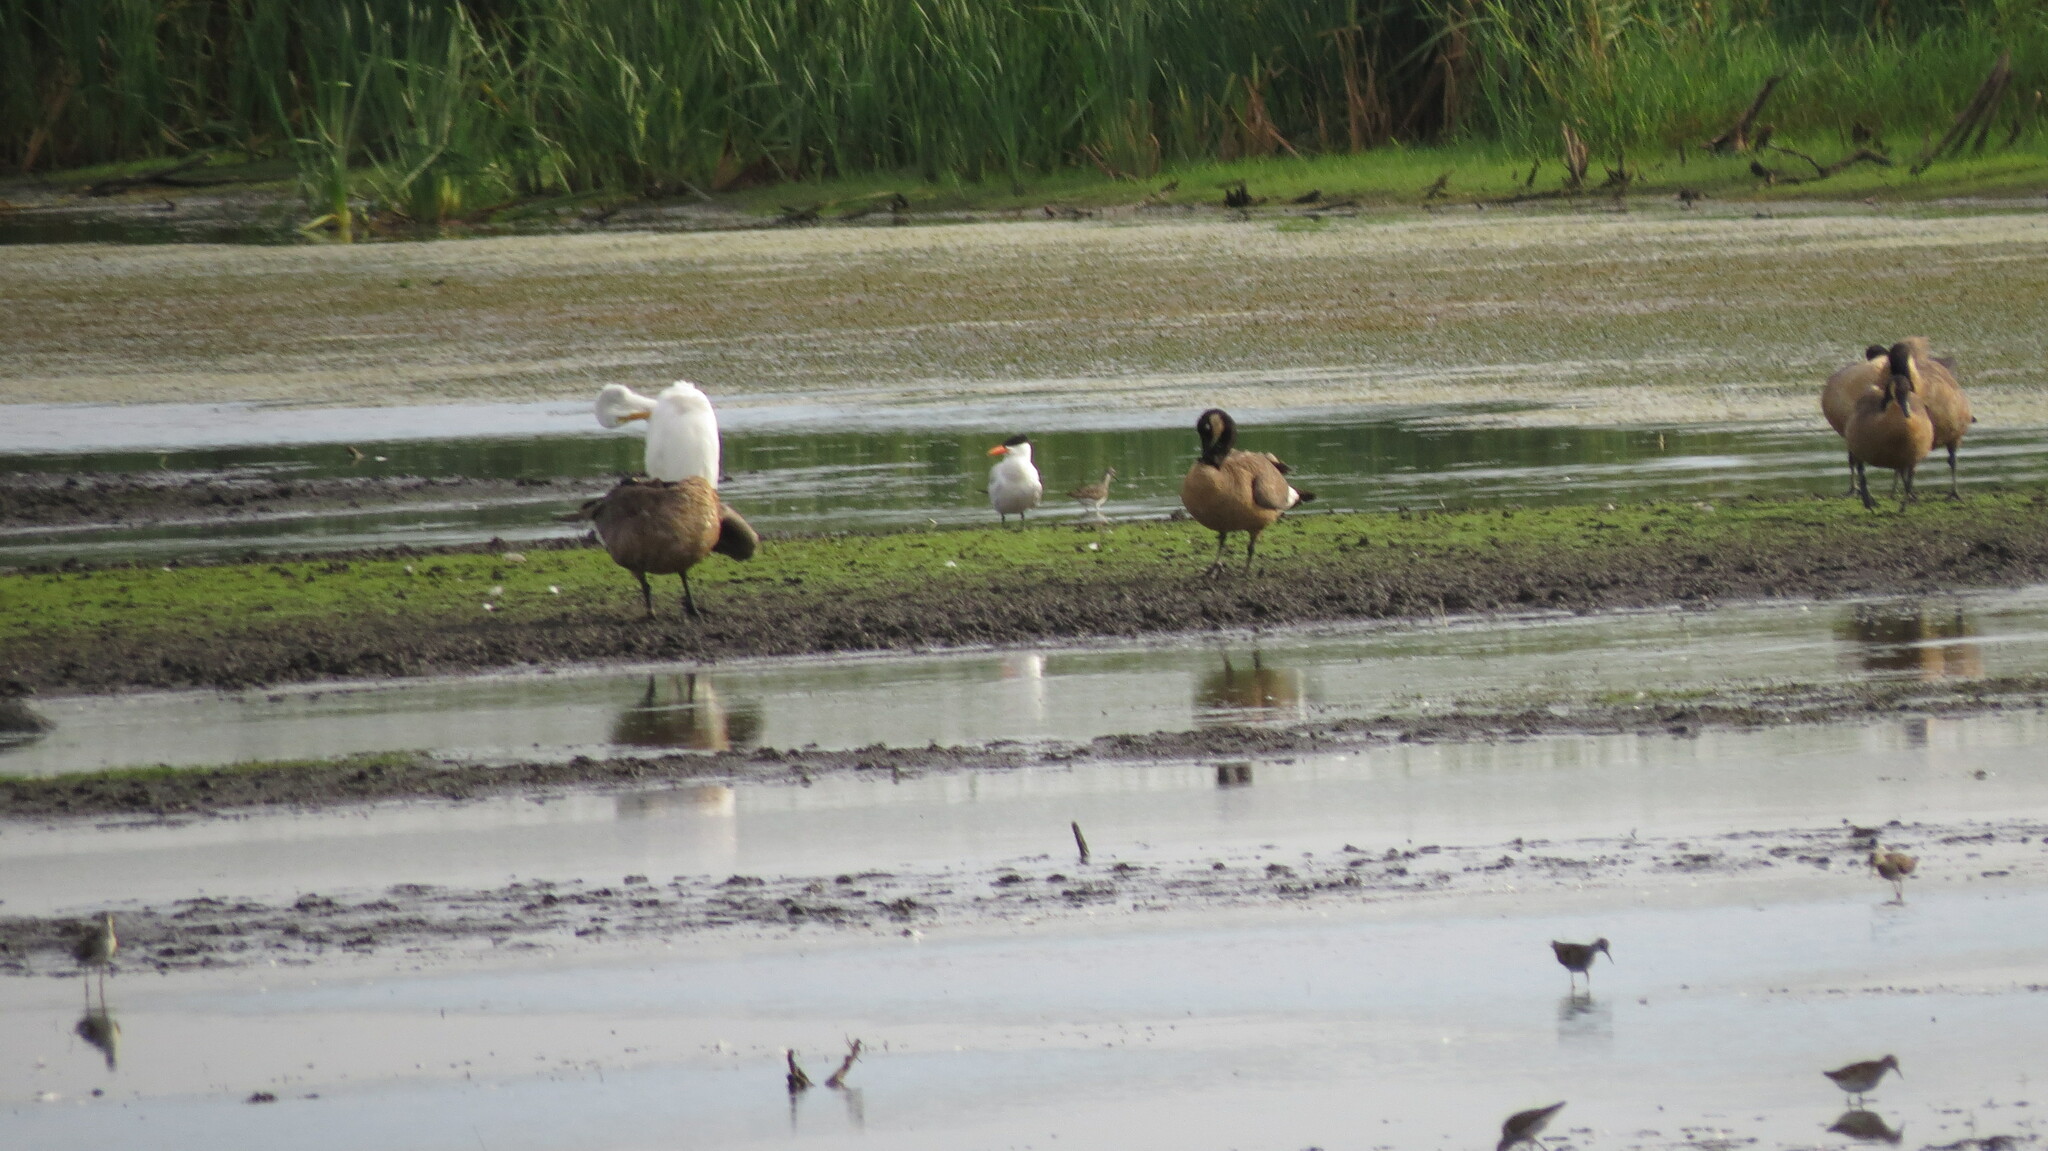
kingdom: Animalia
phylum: Chordata
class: Aves
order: Charadriiformes
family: Laridae
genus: Hydroprogne
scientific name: Hydroprogne caspia
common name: Caspian tern
